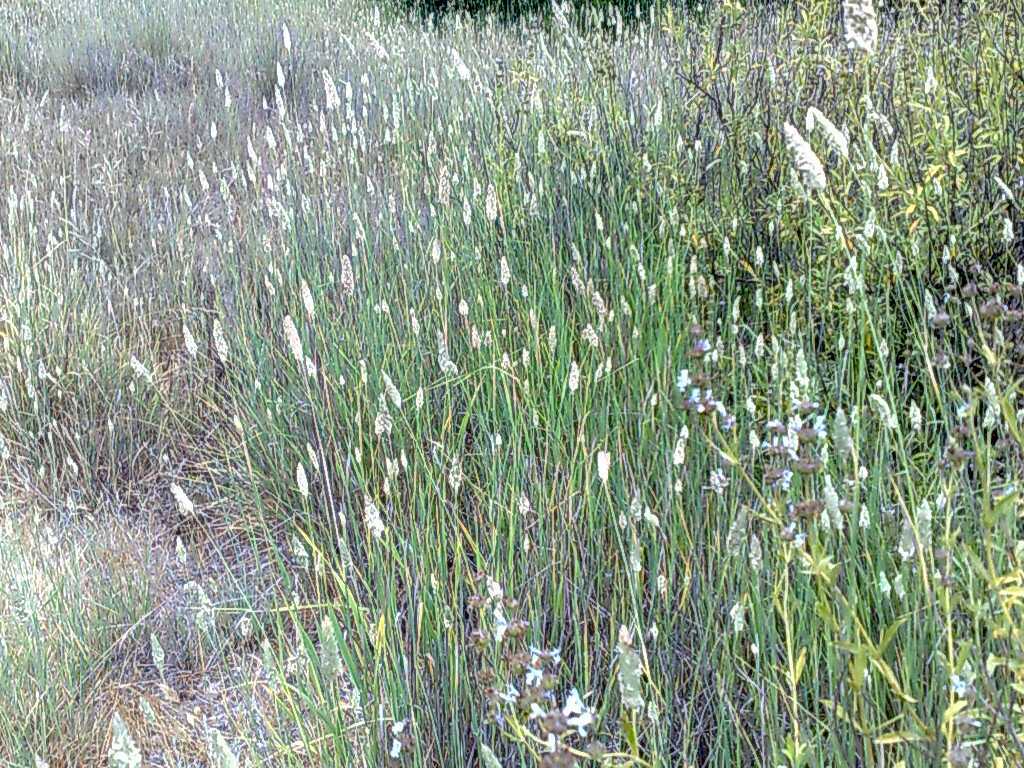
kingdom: Plantae
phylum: Tracheophyta
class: Magnoliopsida
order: Lamiales
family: Lamiaceae
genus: Salvia
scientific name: Salvia mellifera
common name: Black sage
